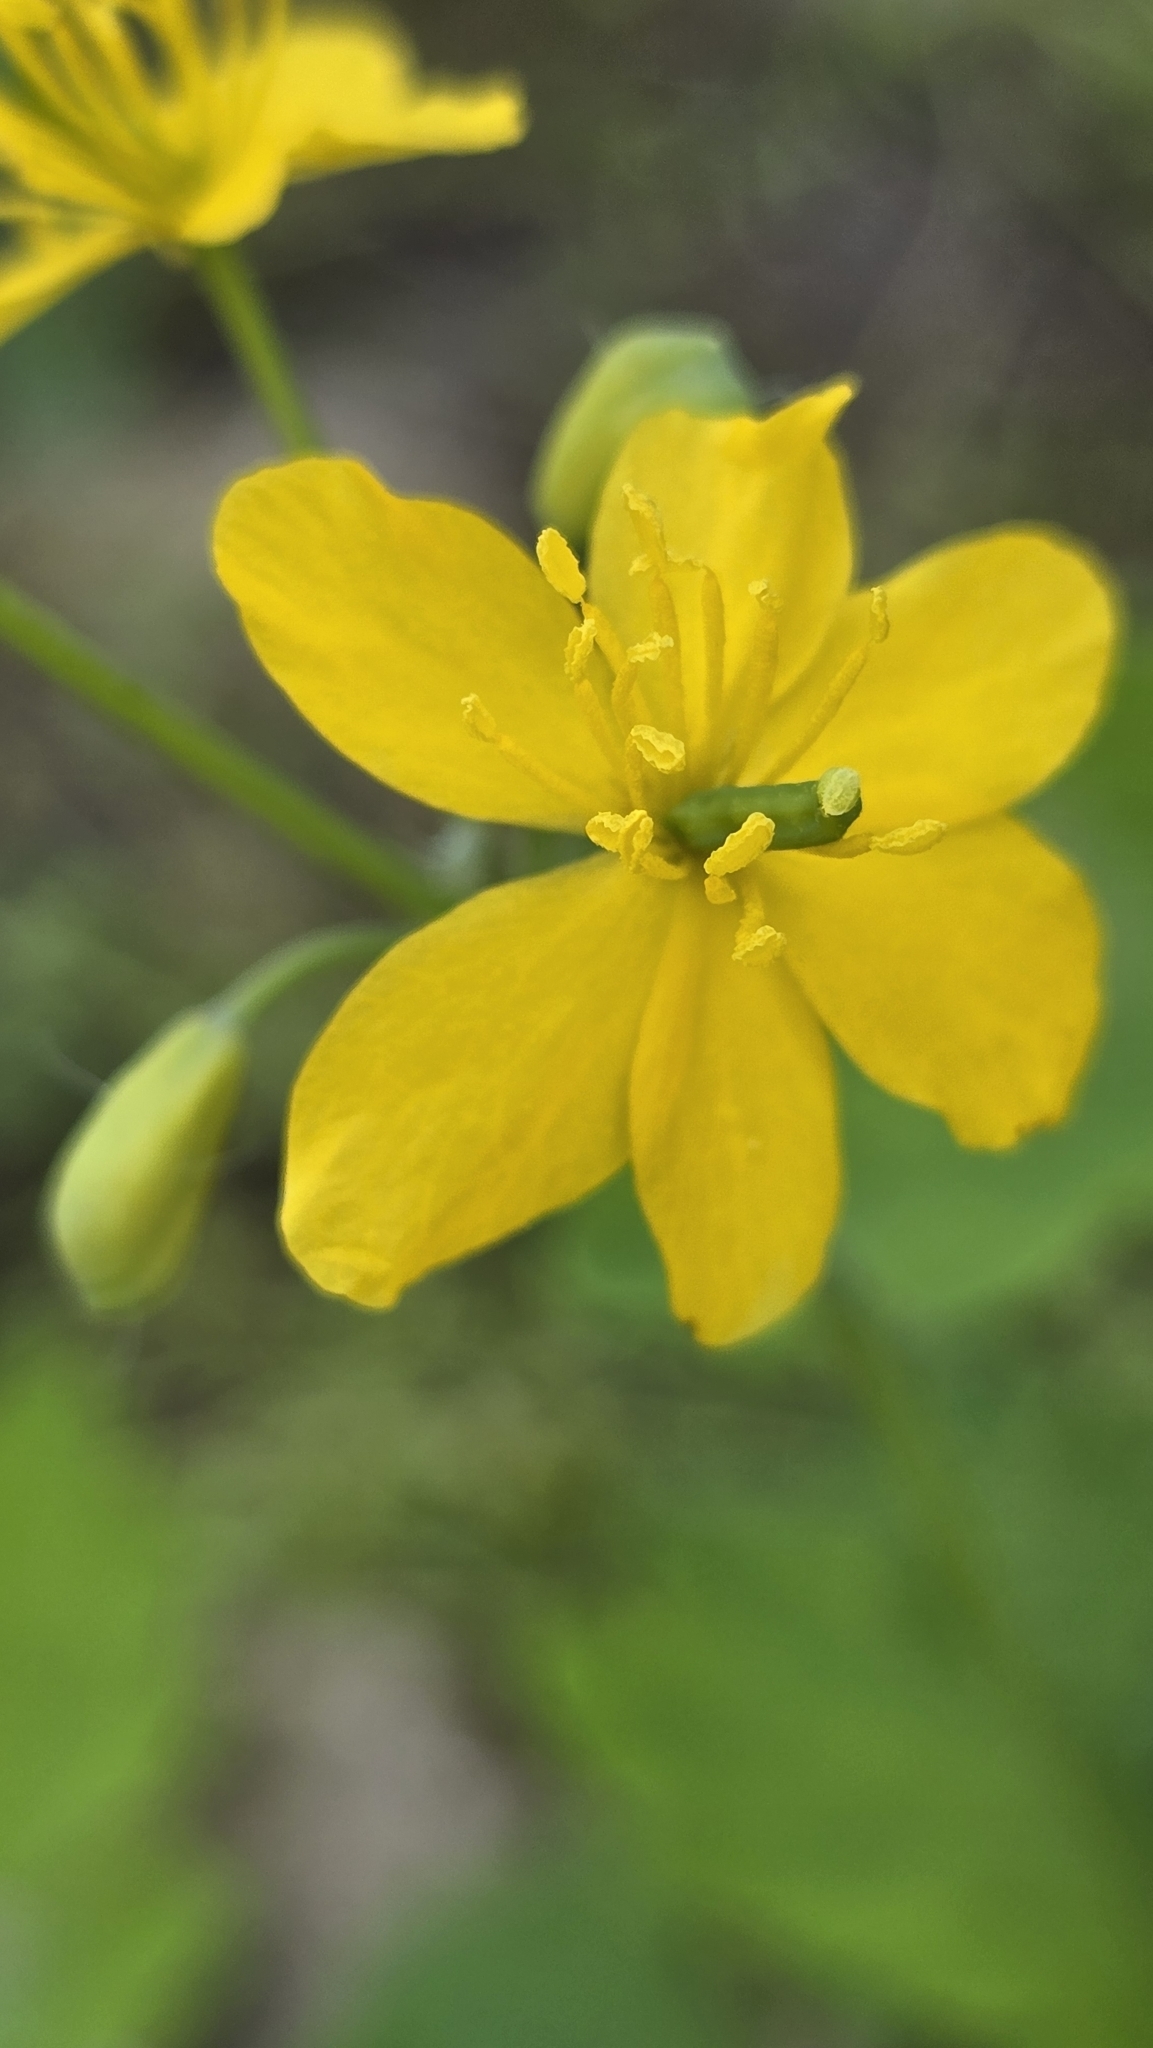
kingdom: Plantae
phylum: Tracheophyta
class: Magnoliopsida
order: Ranunculales
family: Papaveraceae
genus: Chelidonium
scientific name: Chelidonium majus
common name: Greater celandine
